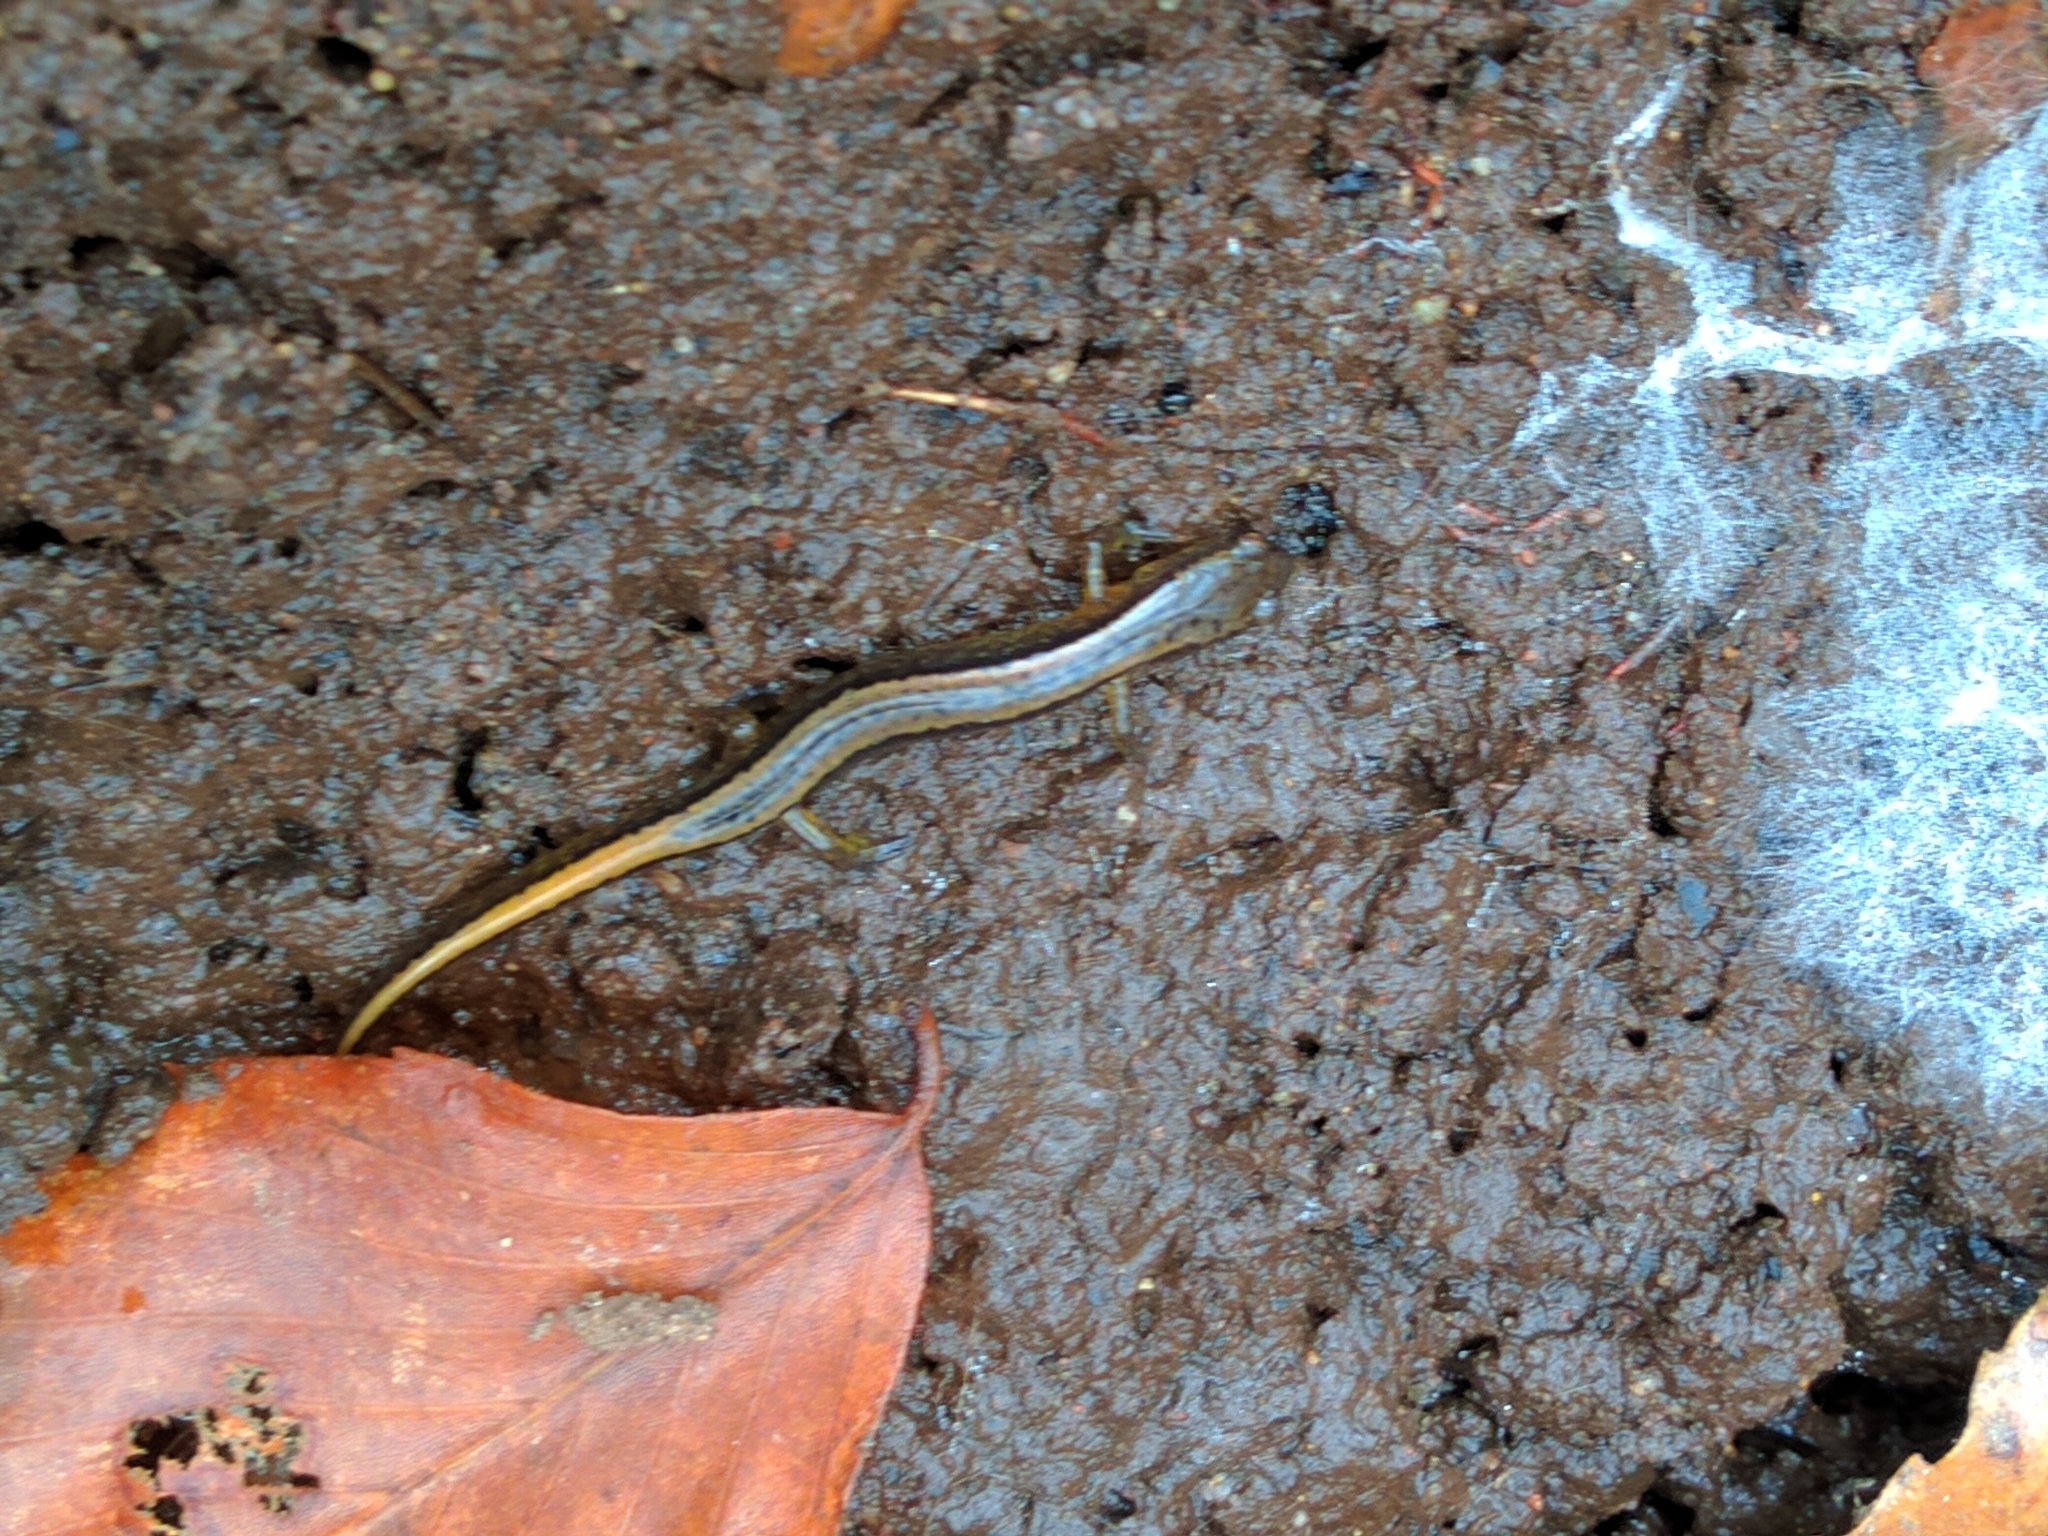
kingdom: Animalia
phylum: Chordata
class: Amphibia
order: Caudata
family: Plethodontidae
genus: Eurycea
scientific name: Eurycea bislineata
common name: Northern two-lined salamander
